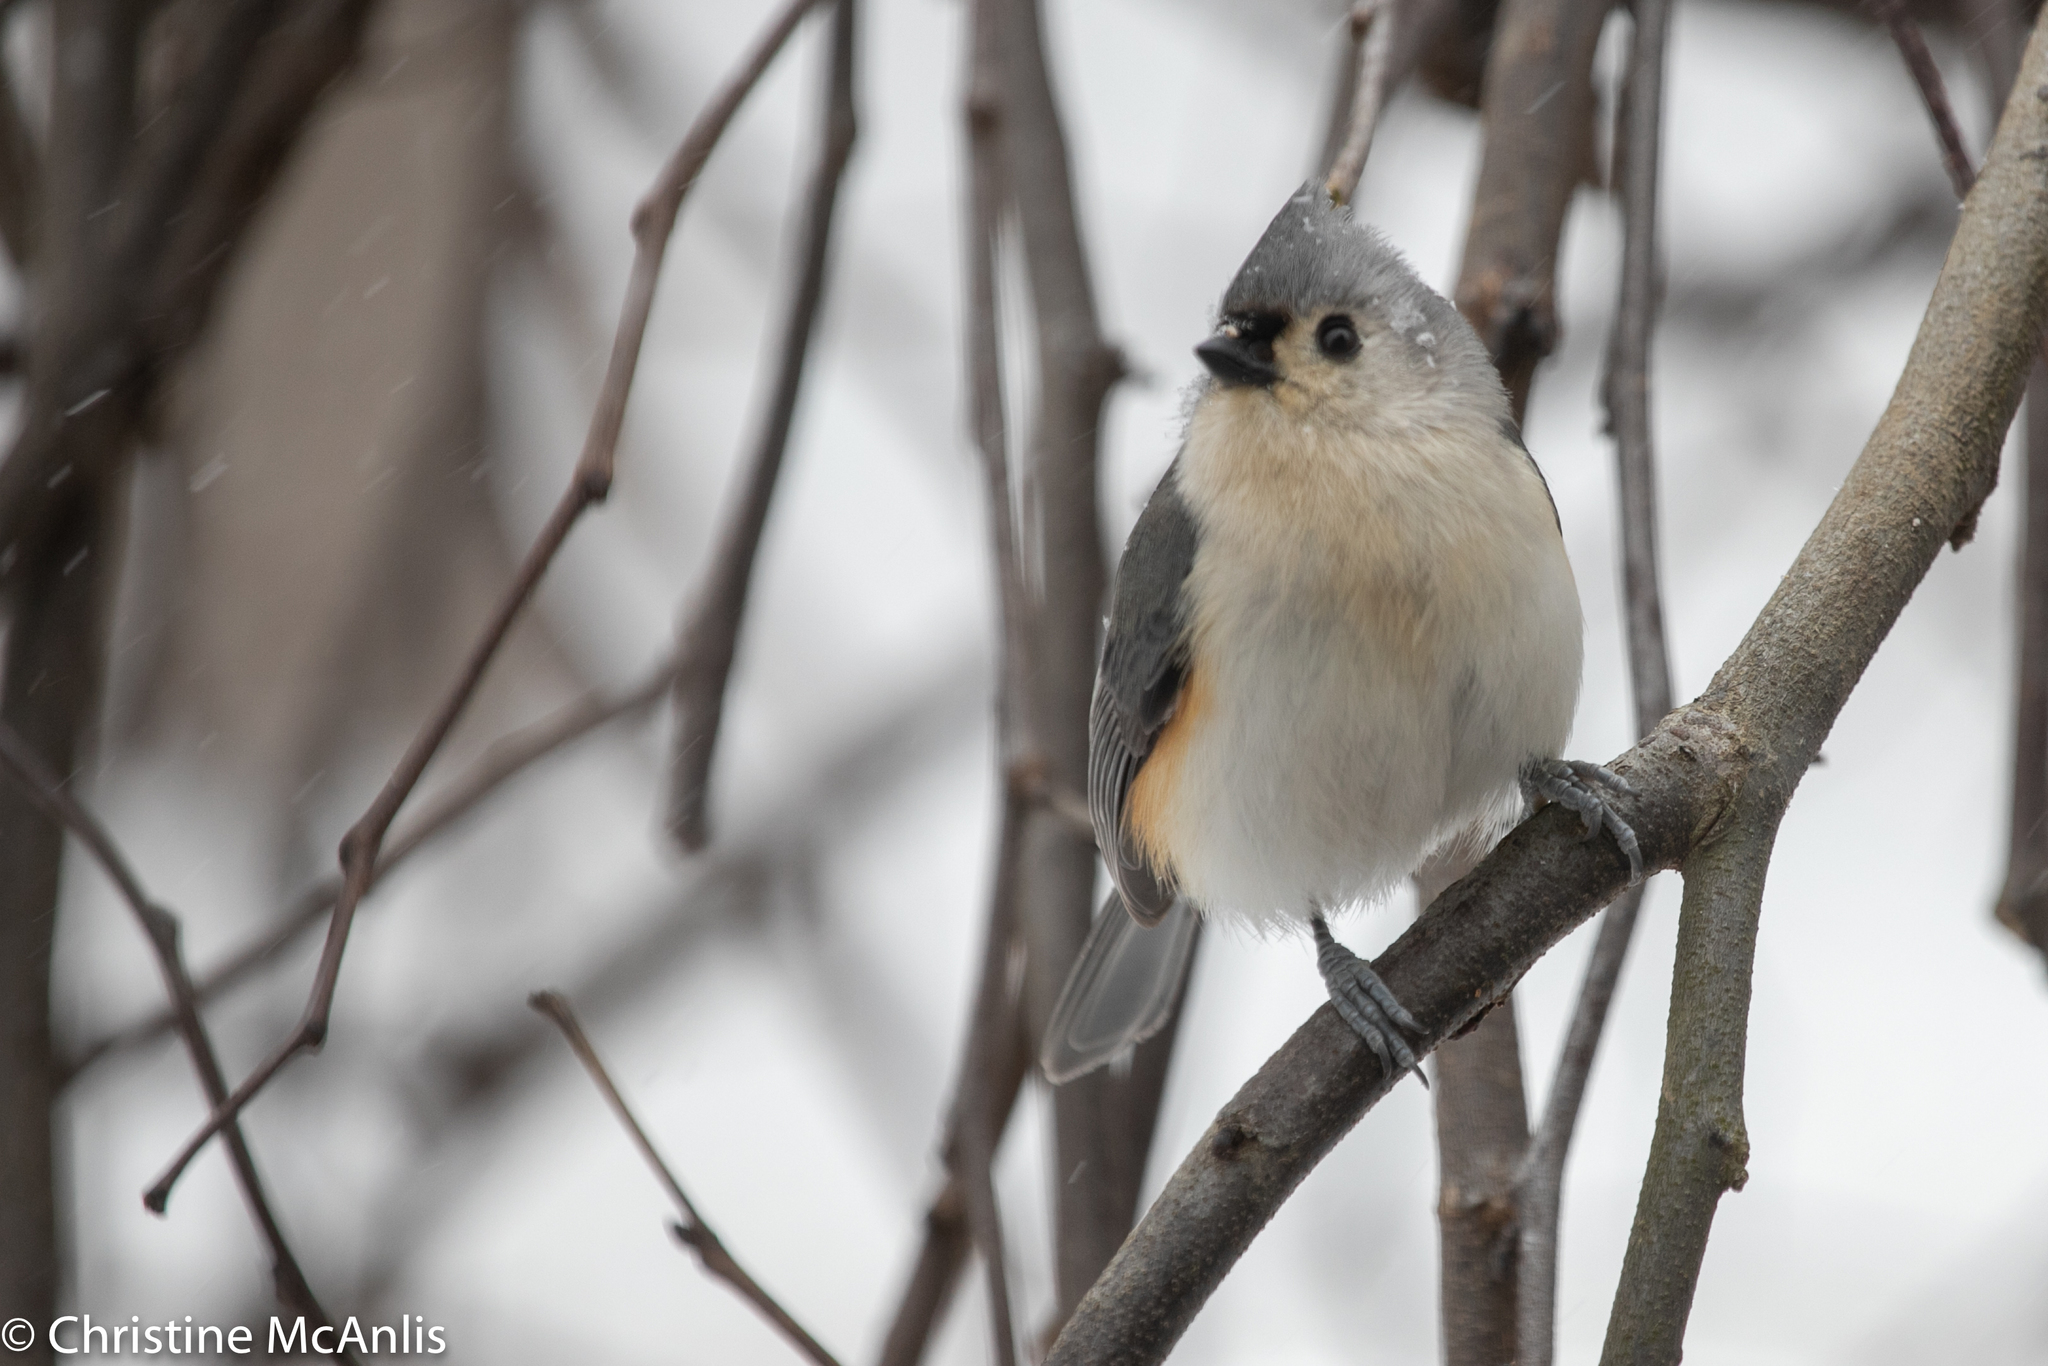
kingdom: Animalia
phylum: Chordata
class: Aves
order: Passeriformes
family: Paridae
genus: Baeolophus
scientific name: Baeolophus bicolor
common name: Tufted titmouse
